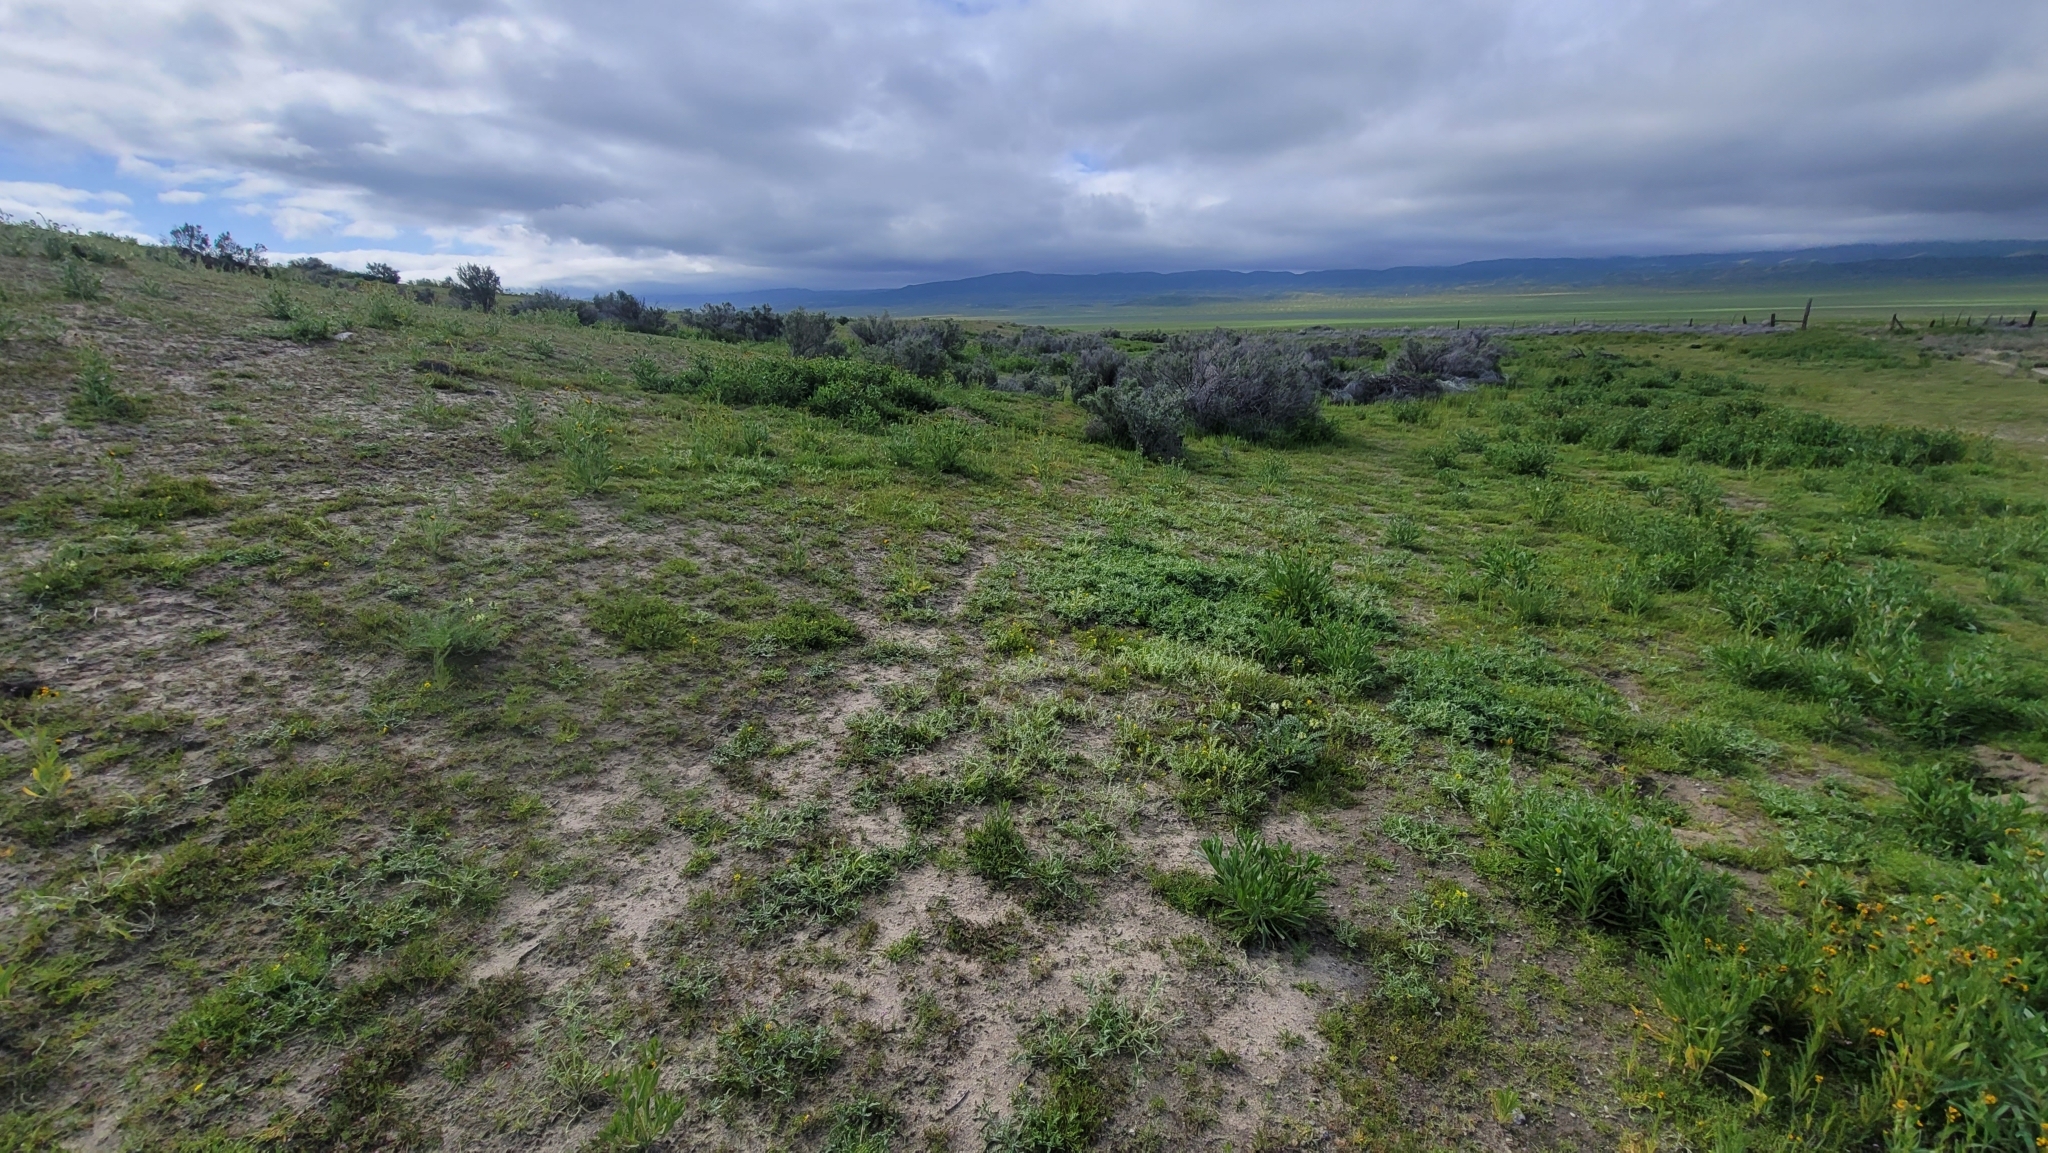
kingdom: Plantae
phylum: Tracheophyta
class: Magnoliopsida
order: Asterales
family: Asteraceae
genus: Monolopia
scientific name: Monolopia congdonii
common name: San joaquin woolly-threads
